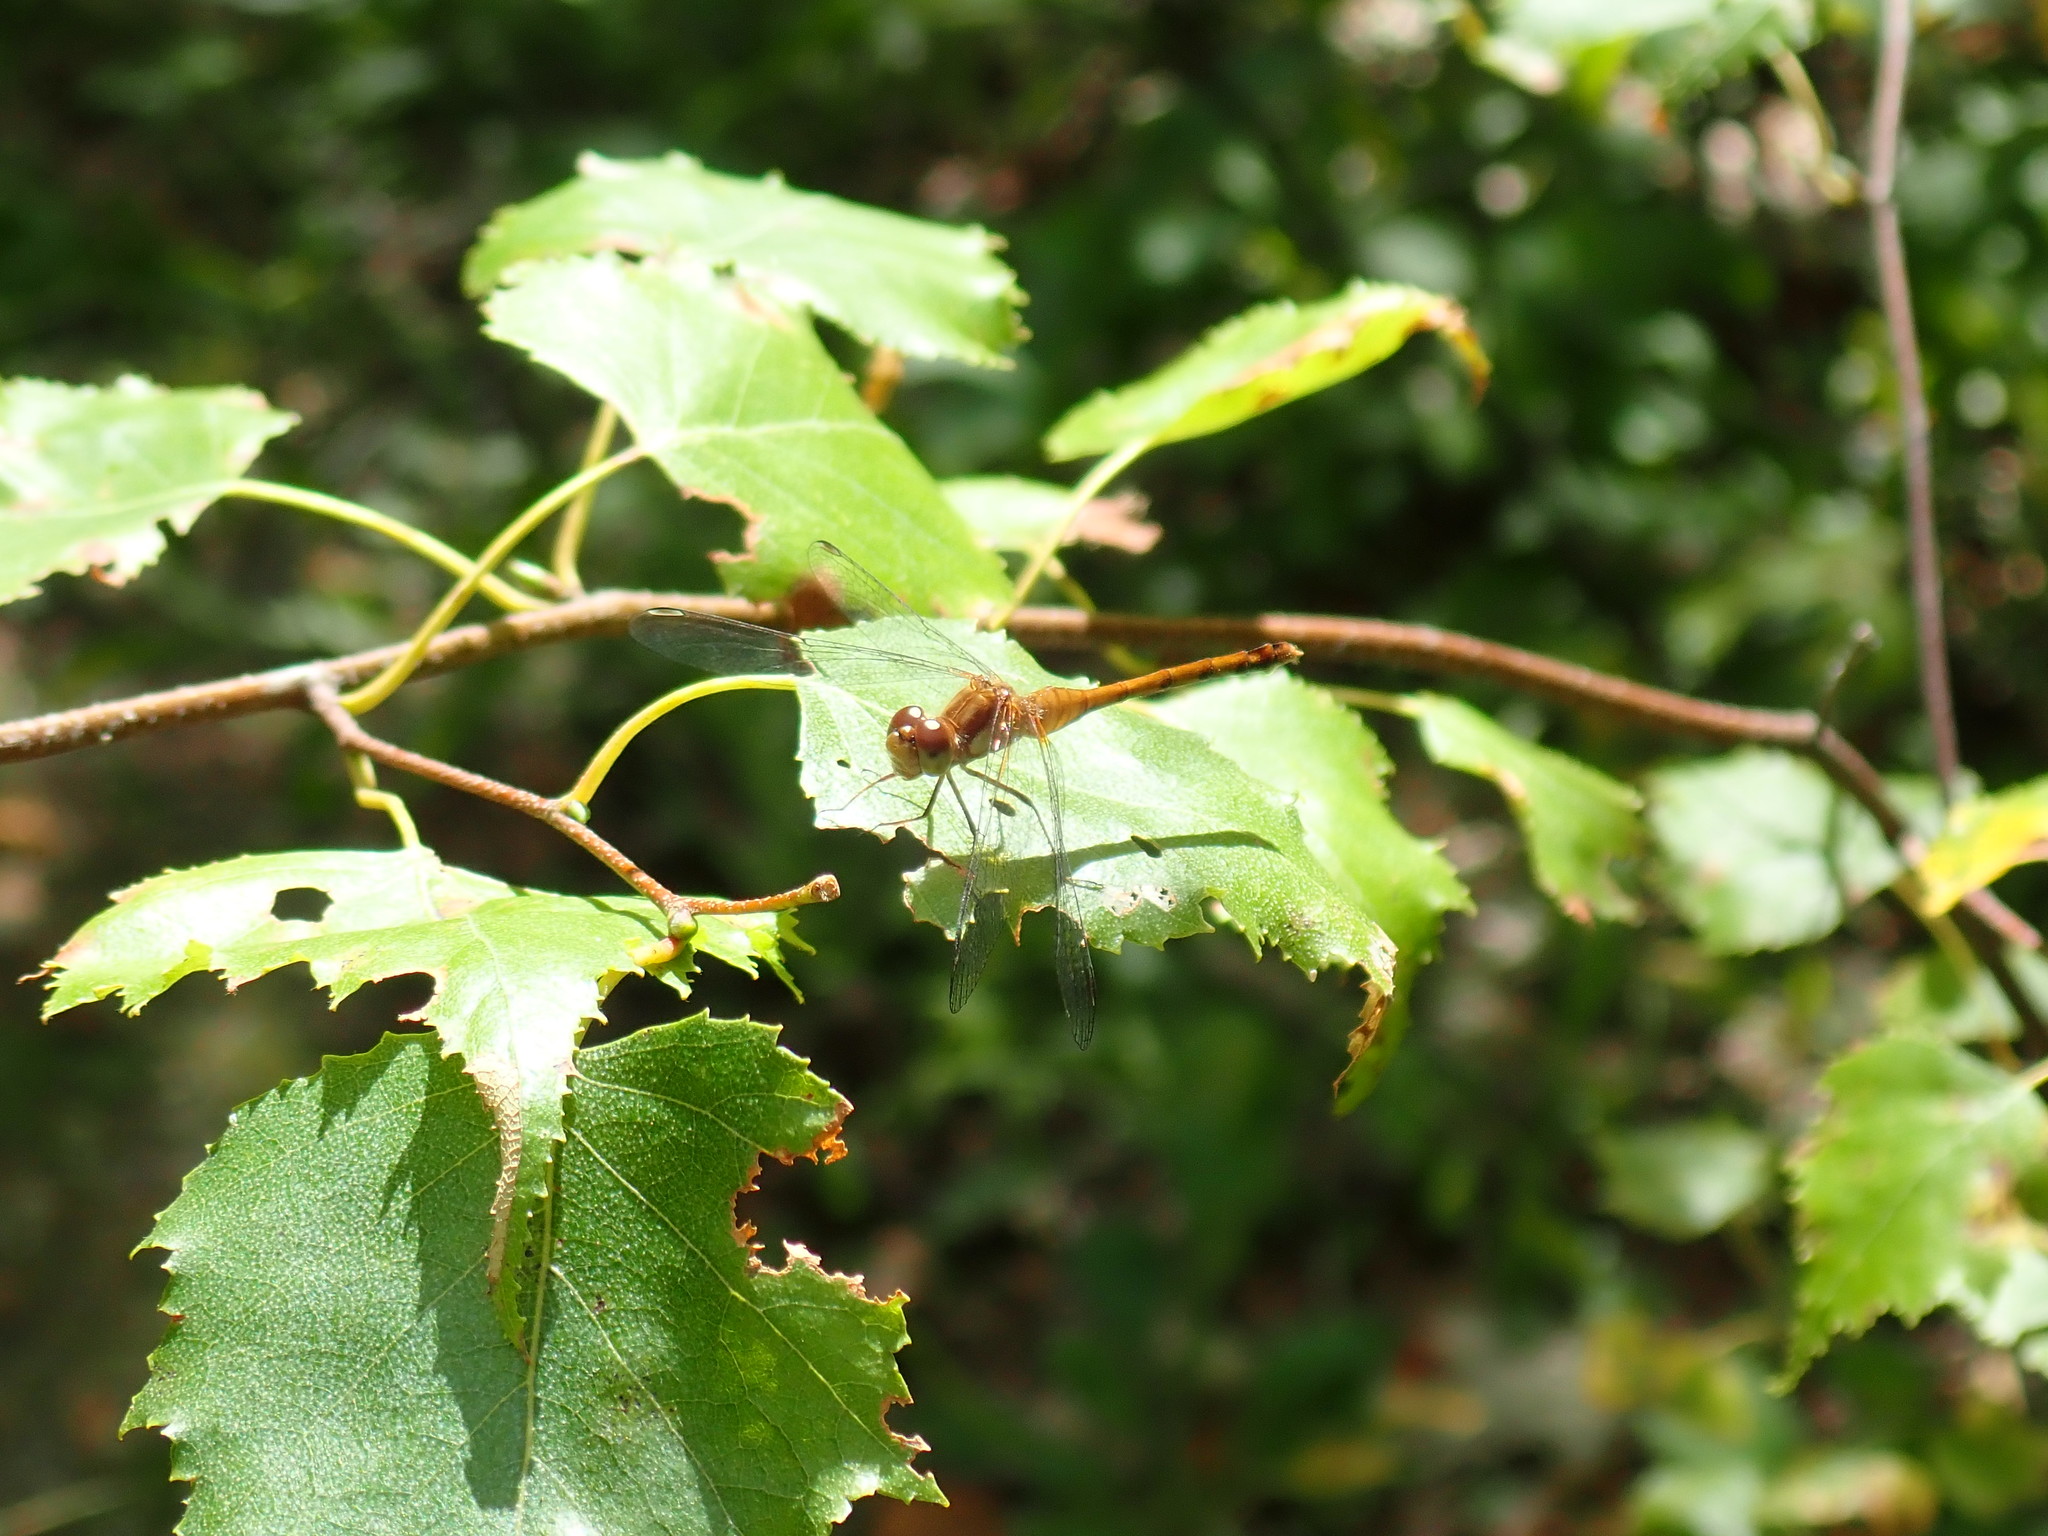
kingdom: Animalia
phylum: Arthropoda
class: Insecta
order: Odonata
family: Libellulidae
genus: Sympetrum
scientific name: Sympetrum vicinum
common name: Autumn meadowhawk
